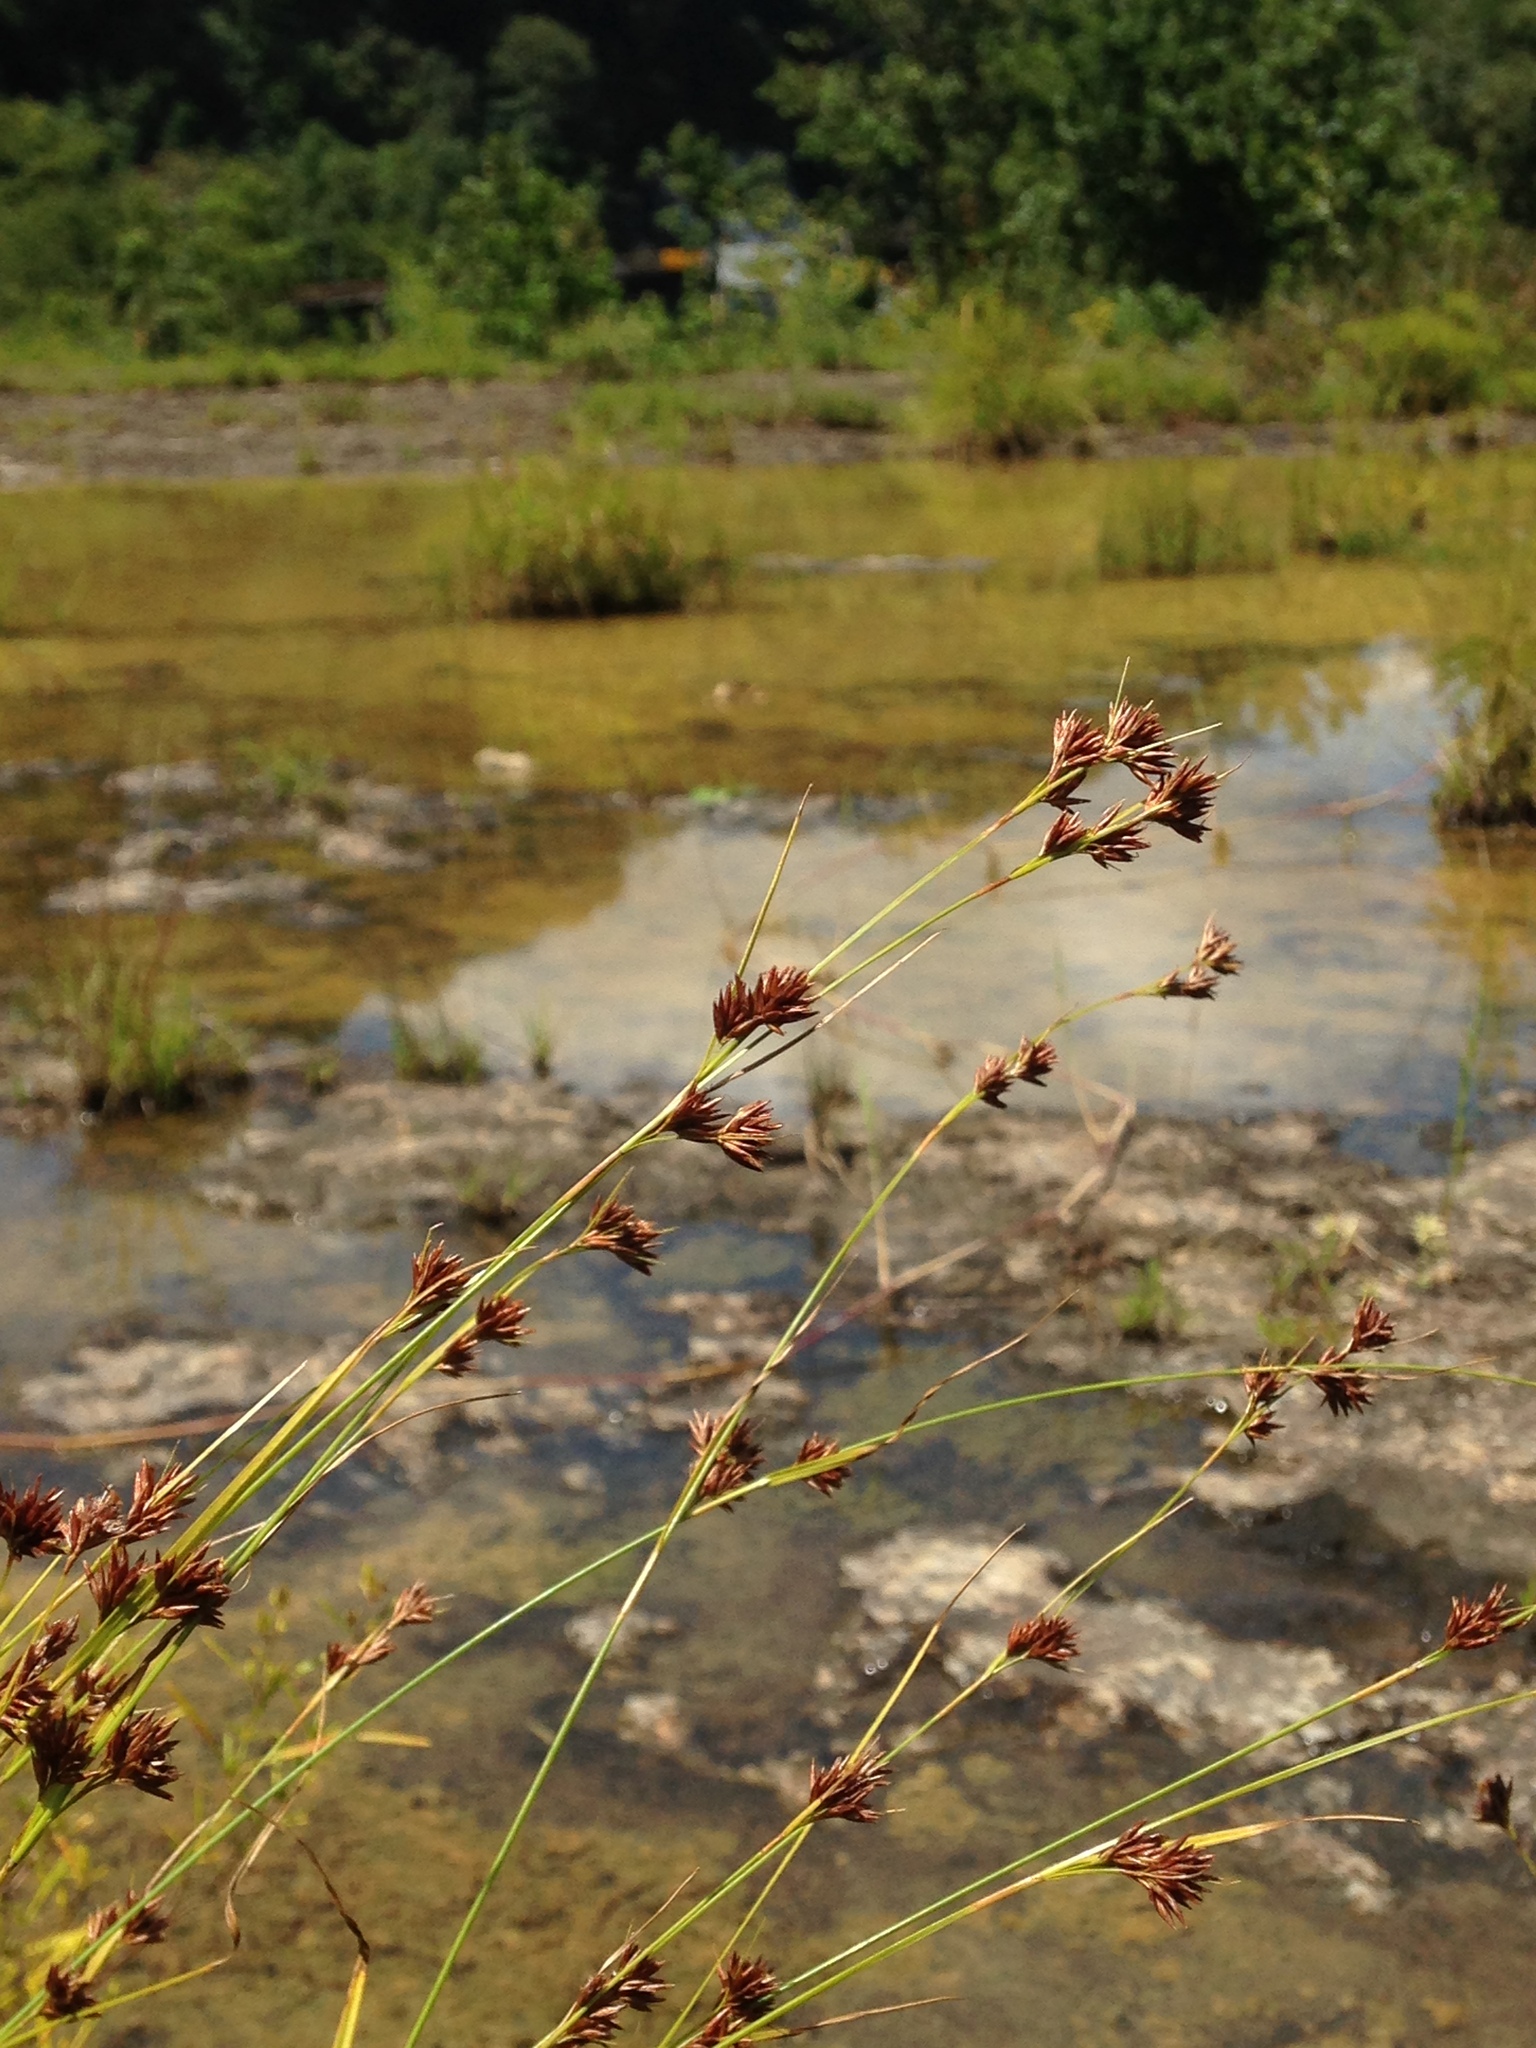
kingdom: Plantae
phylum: Tracheophyta
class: Liliopsida
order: Poales
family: Cyperaceae
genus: Rhynchospora
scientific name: Rhynchospora stiletto
